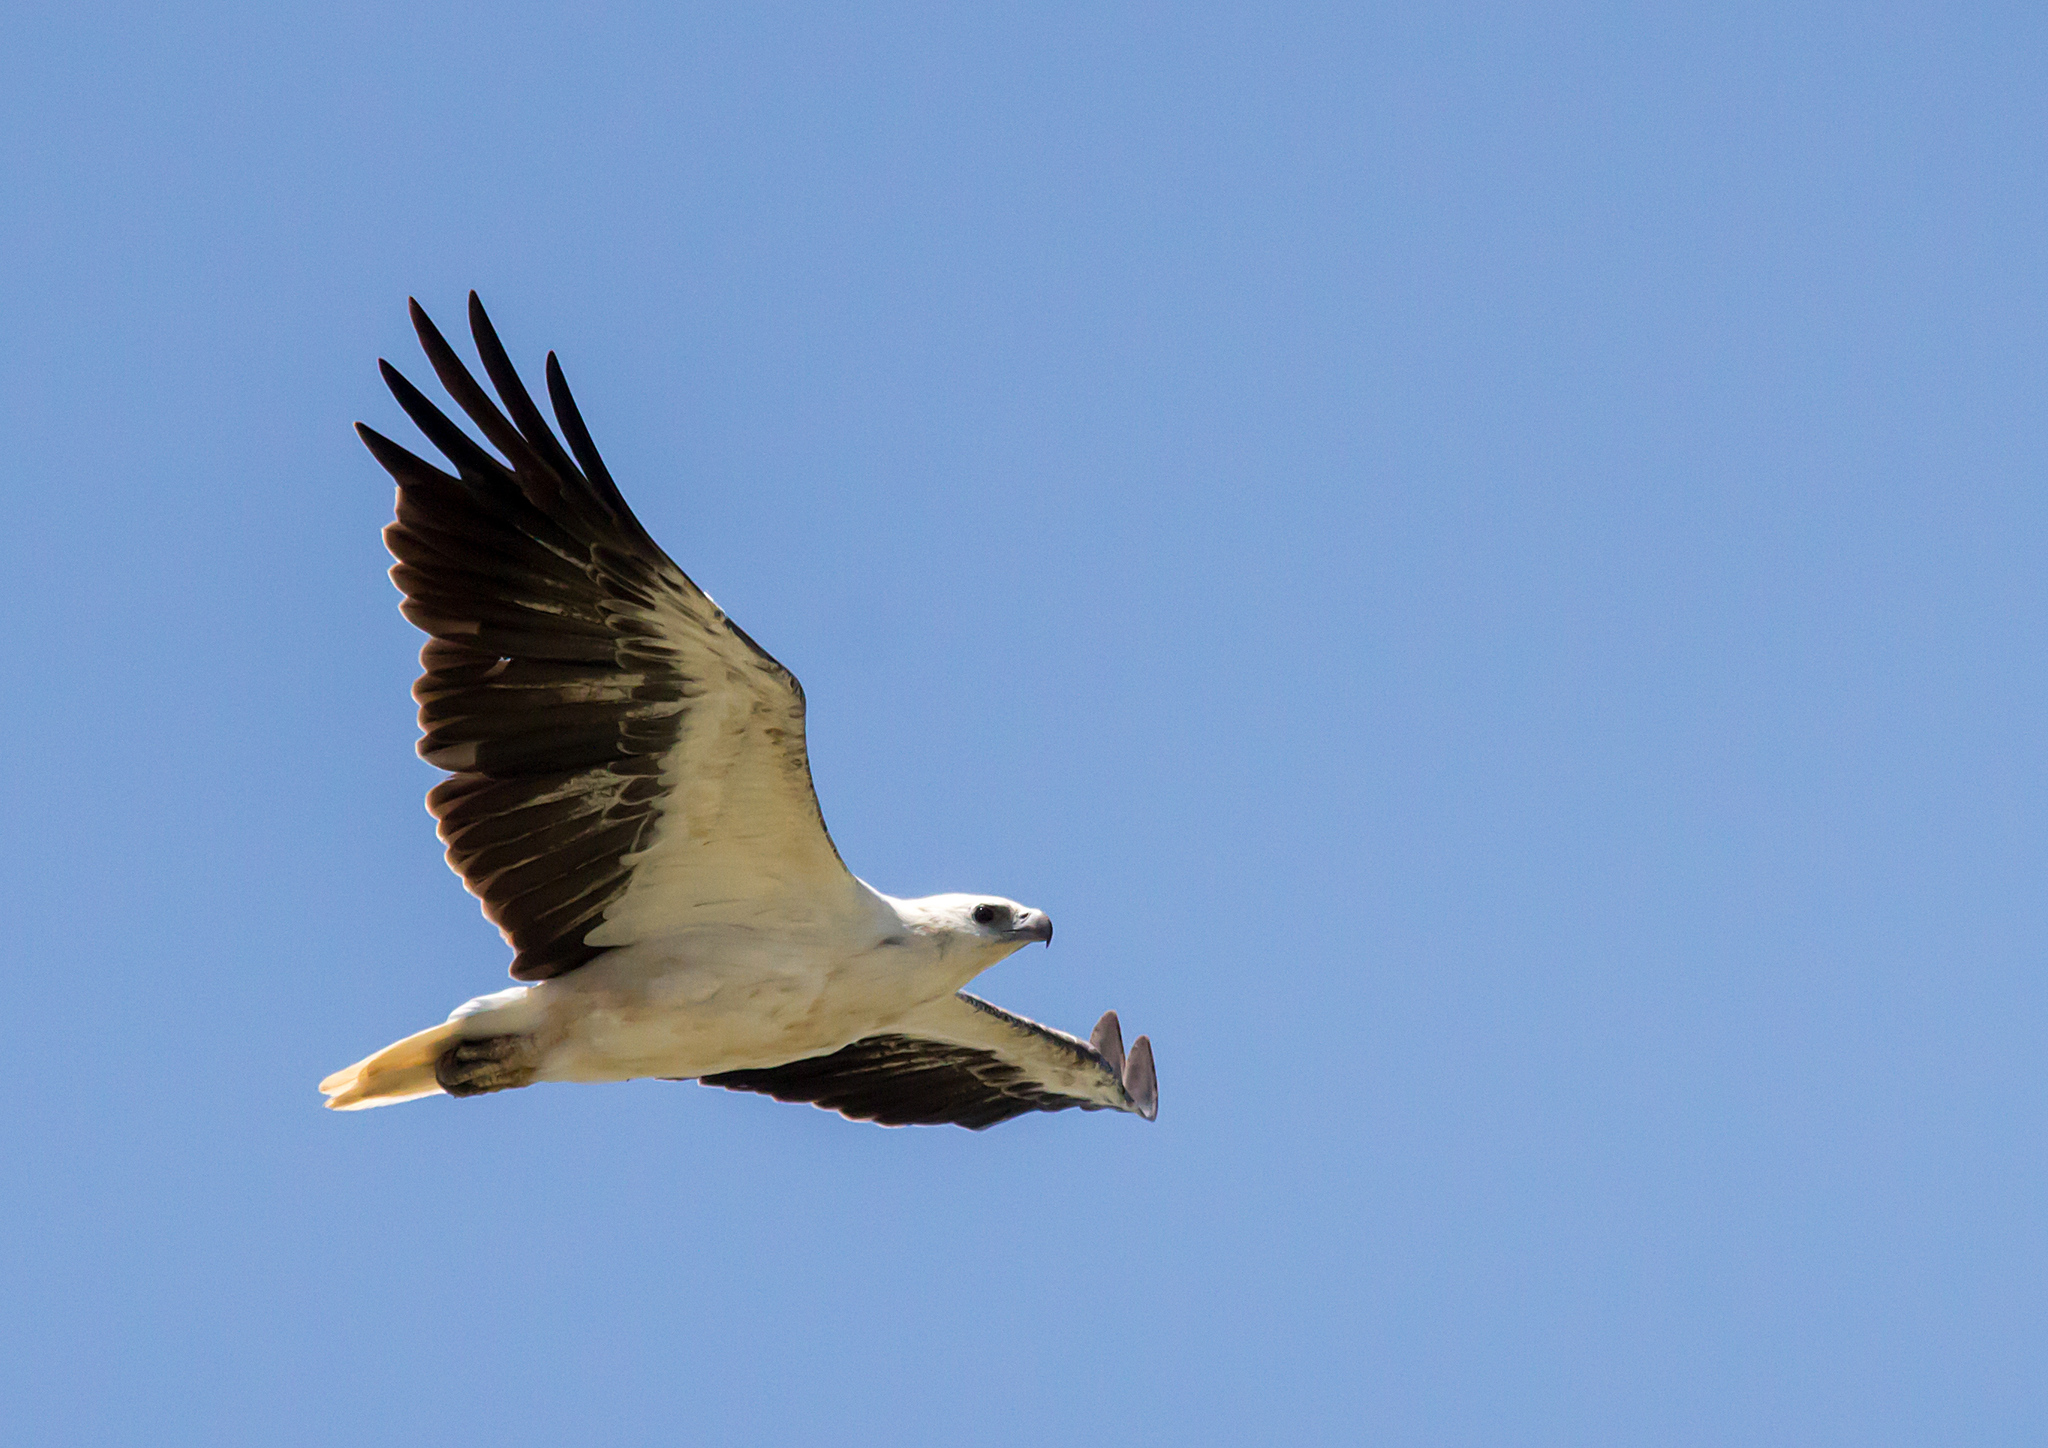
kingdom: Animalia
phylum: Chordata
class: Aves
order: Accipitriformes
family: Accipitridae
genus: Haliaeetus
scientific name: Haliaeetus leucogaster
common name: White-bellied sea eagle
